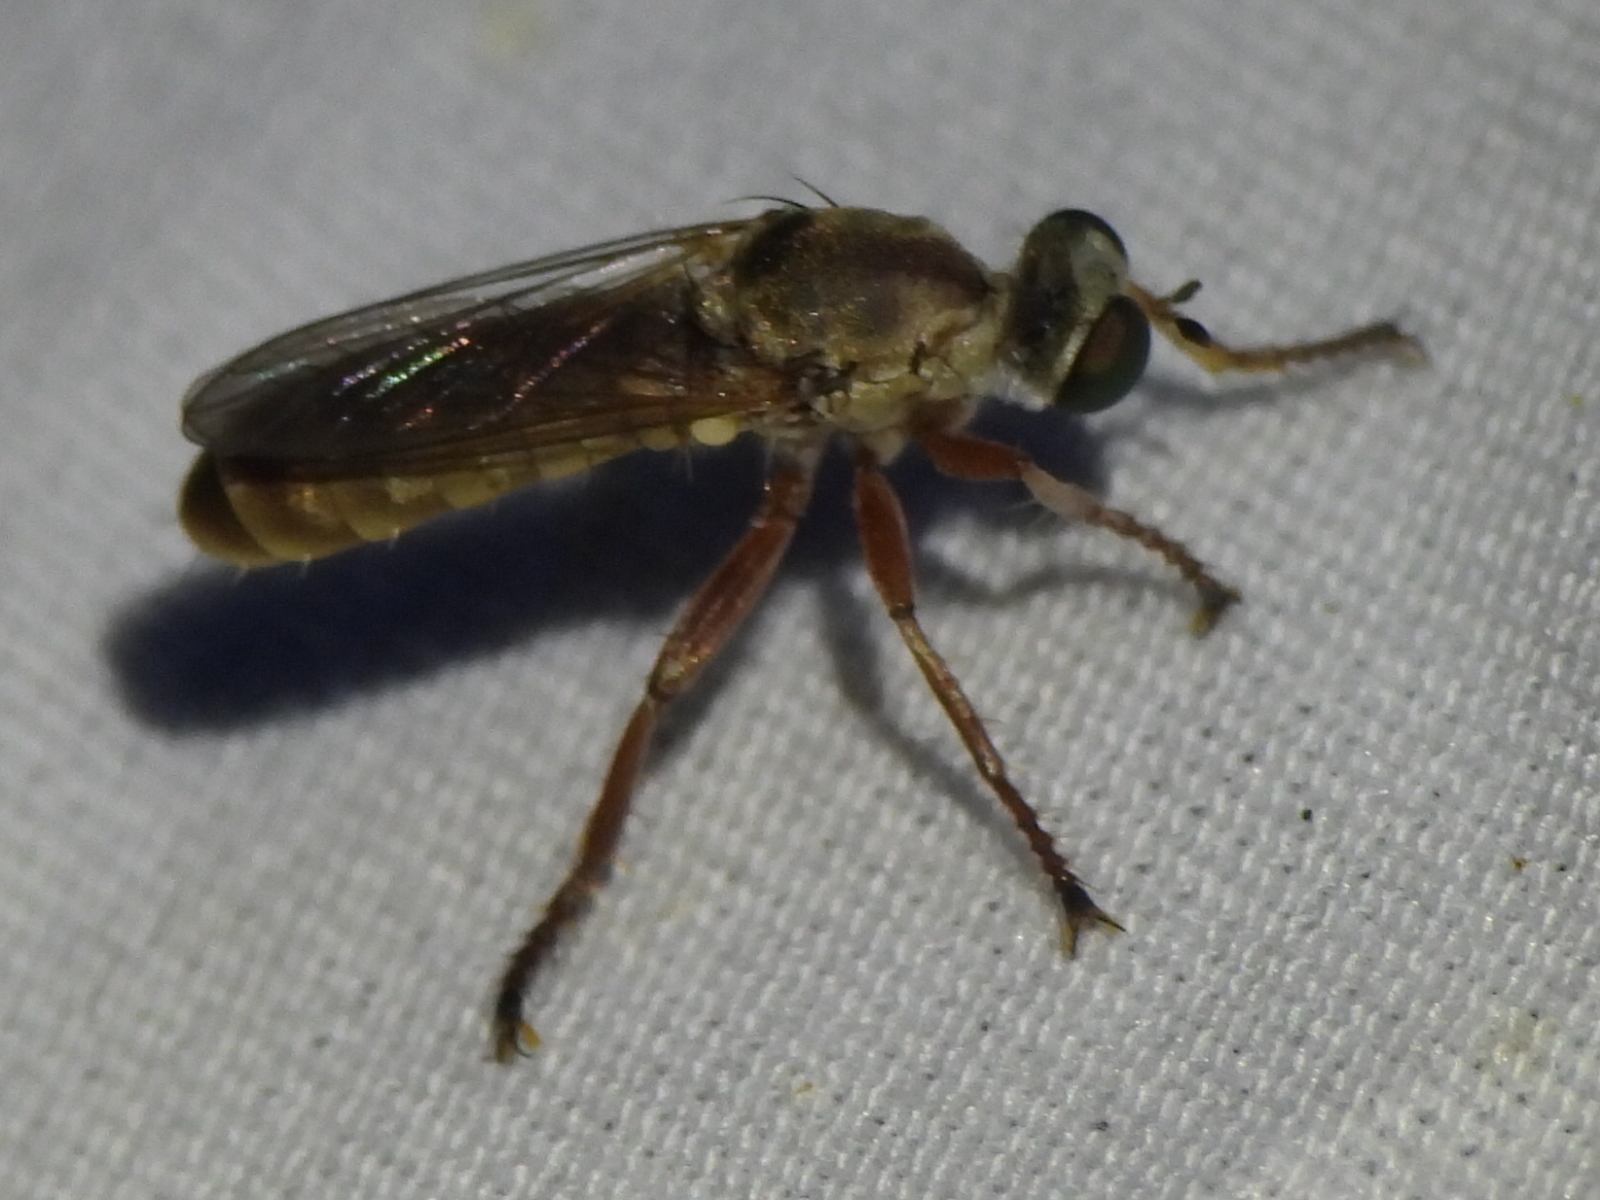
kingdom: Animalia
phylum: Arthropoda
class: Insecta
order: Diptera
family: Asilidae
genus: Psilocurus
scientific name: Psilocurus nudiusculus
